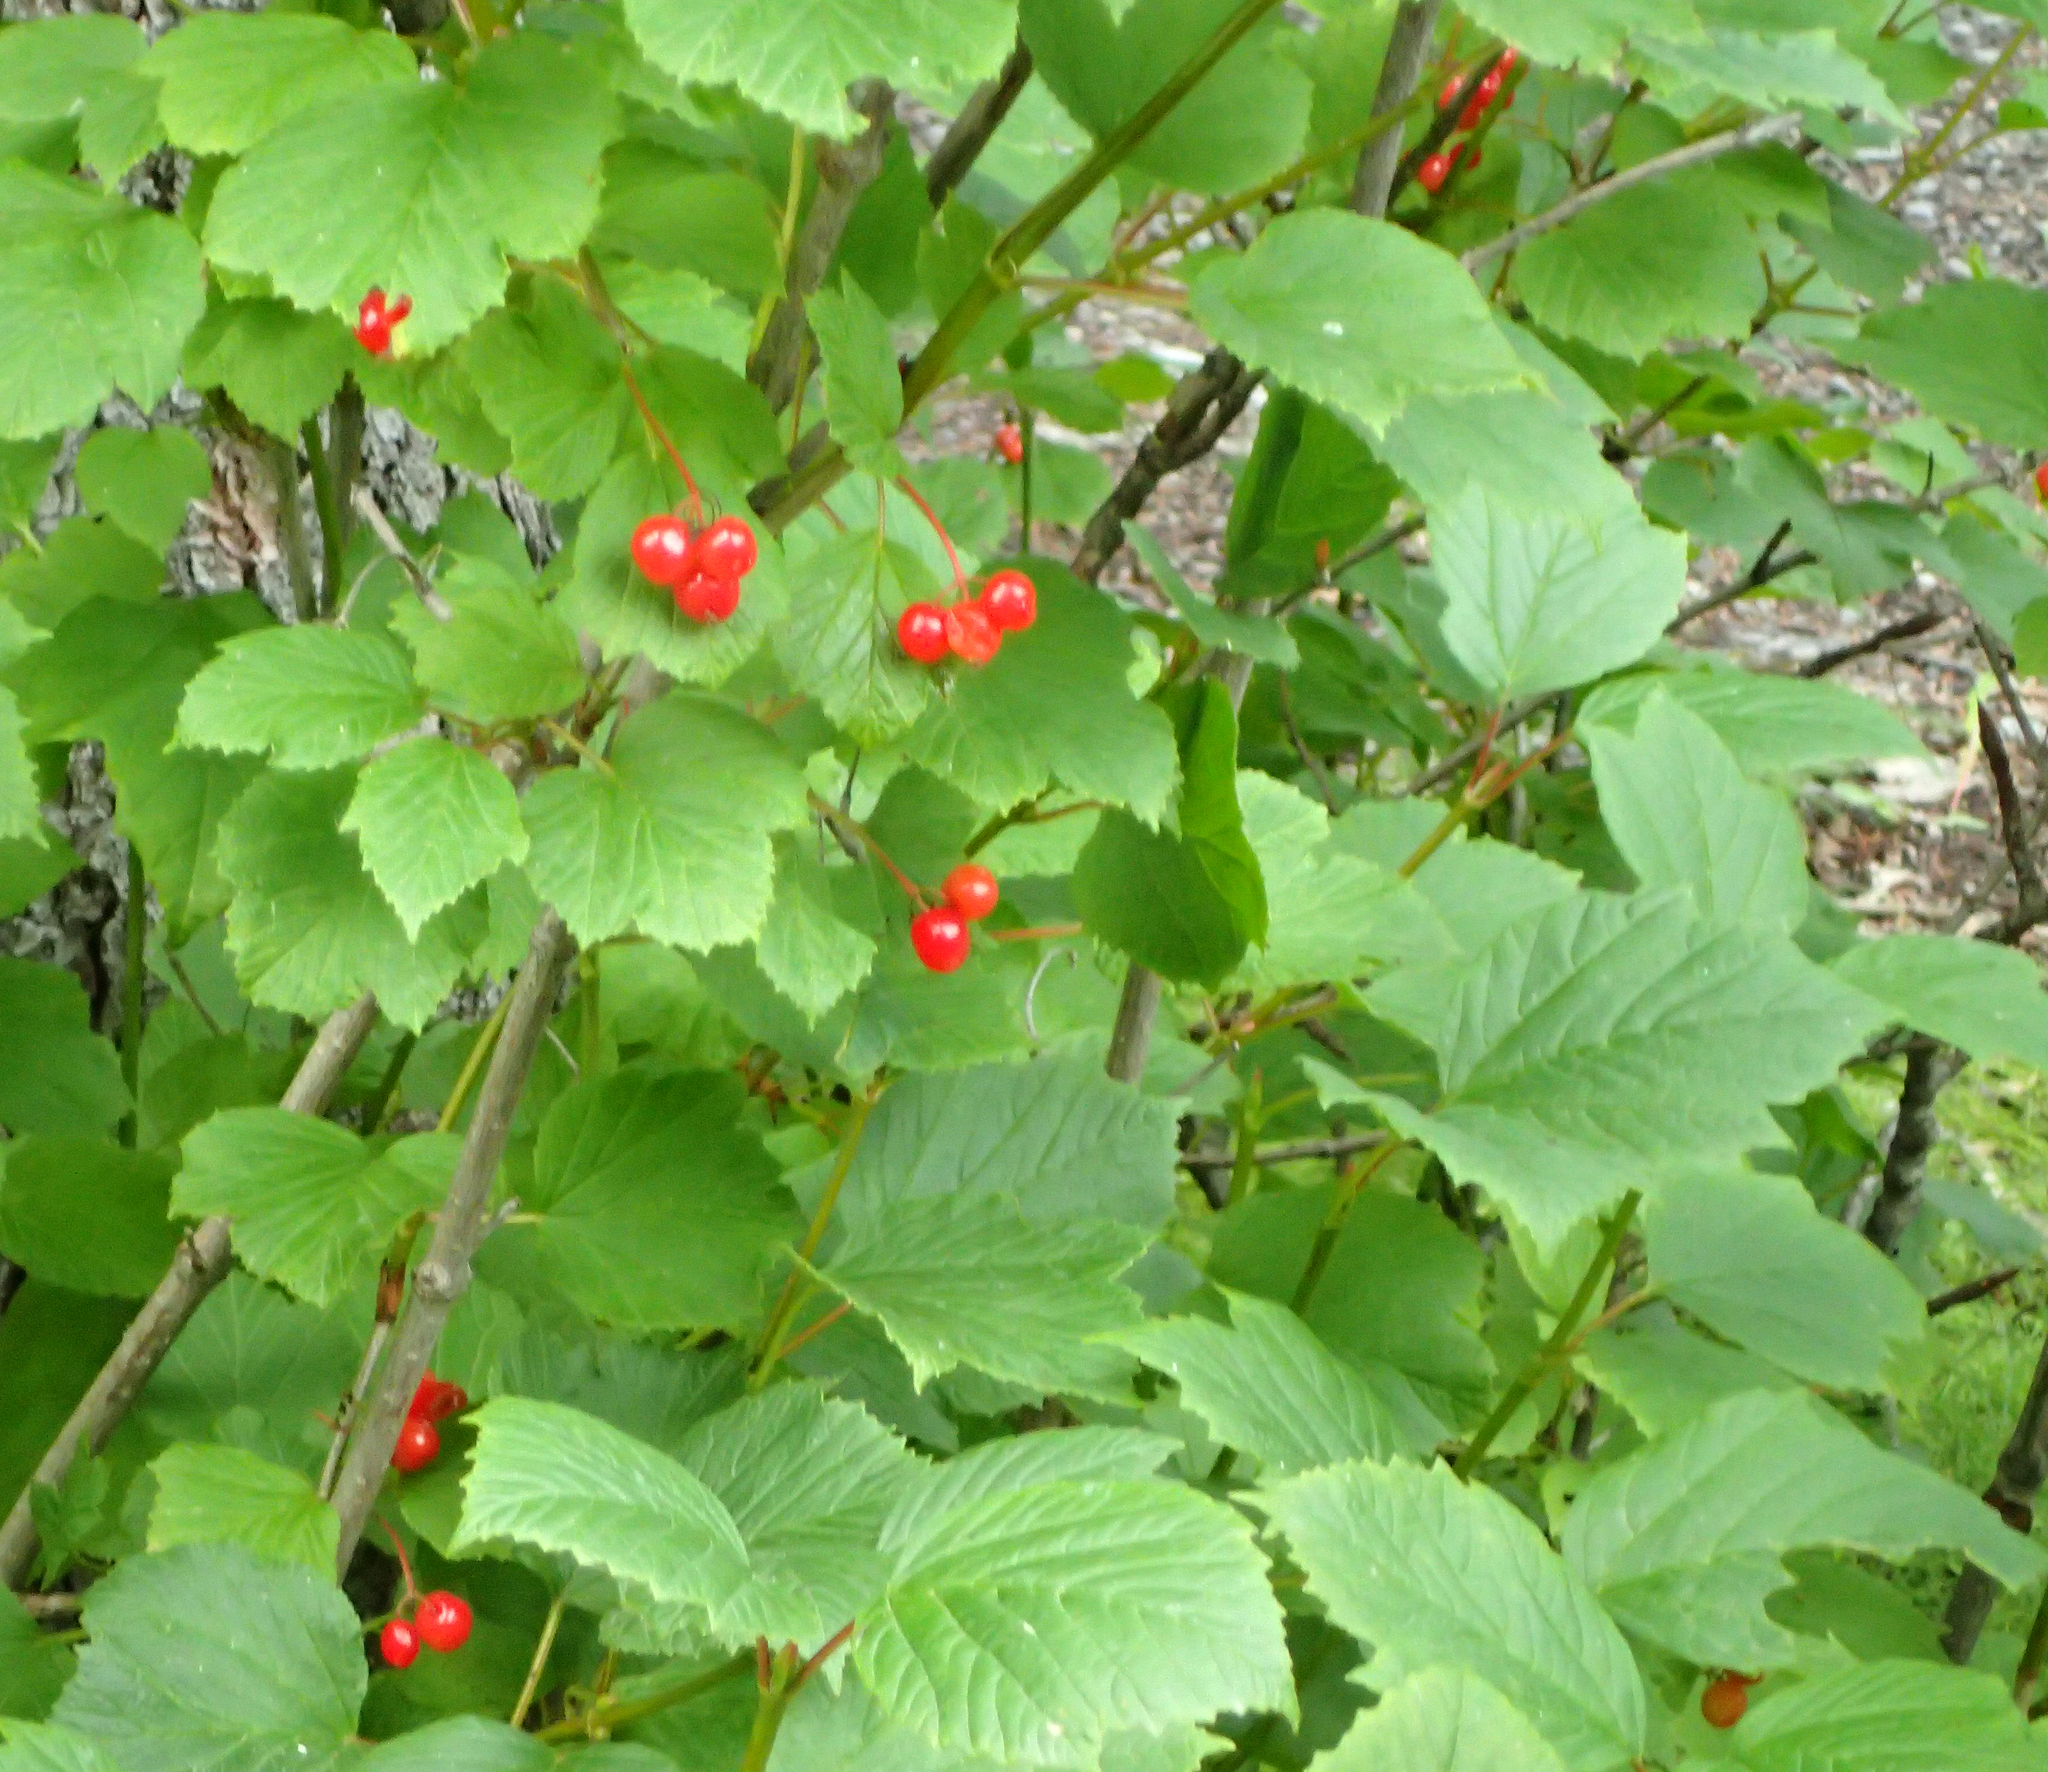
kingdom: Plantae
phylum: Tracheophyta
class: Magnoliopsida
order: Dipsacales
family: Viburnaceae
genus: Viburnum
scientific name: Viburnum edule
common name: Mooseberry
